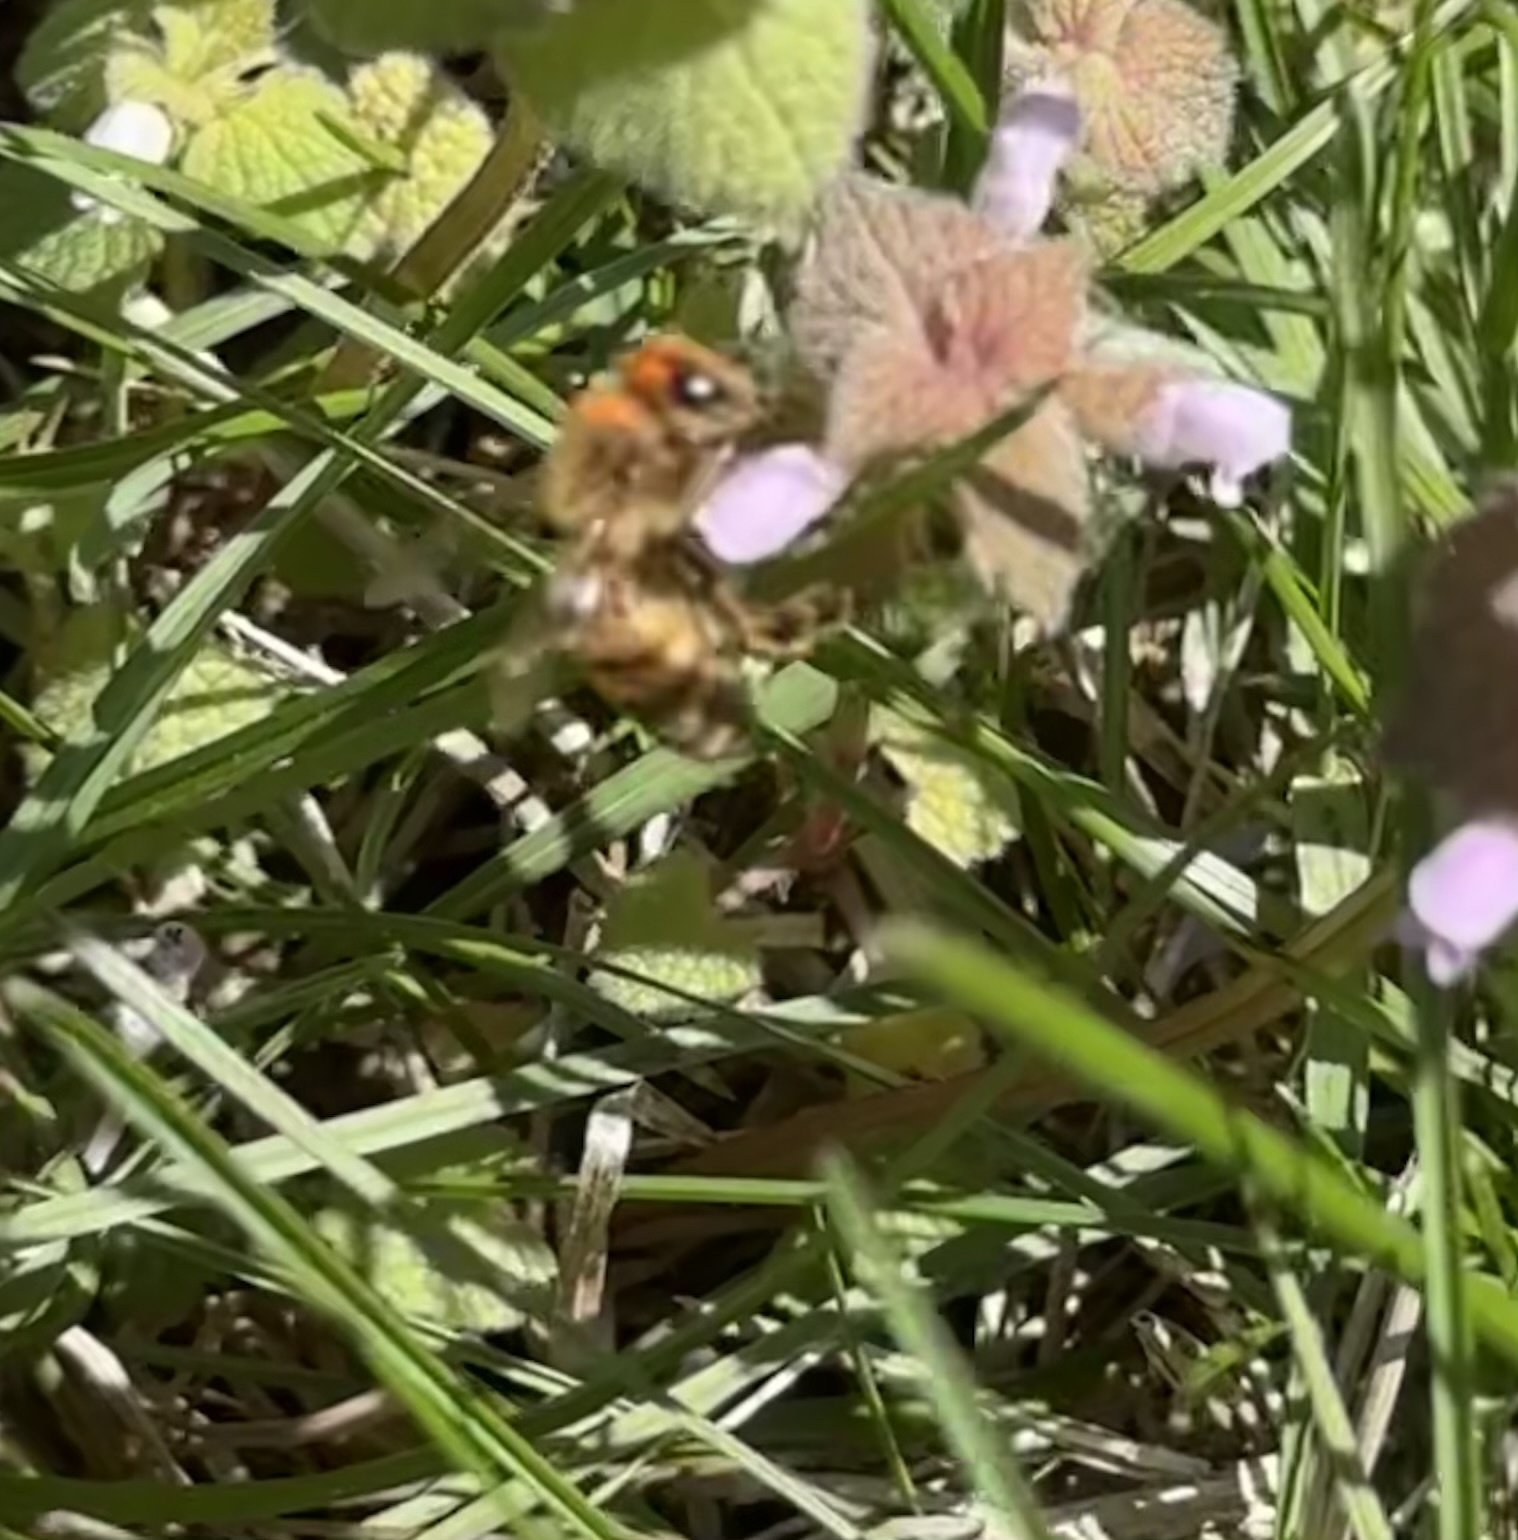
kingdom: Animalia
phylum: Arthropoda
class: Insecta
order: Hymenoptera
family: Apidae
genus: Apis
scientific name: Apis mellifera
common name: Honey bee
